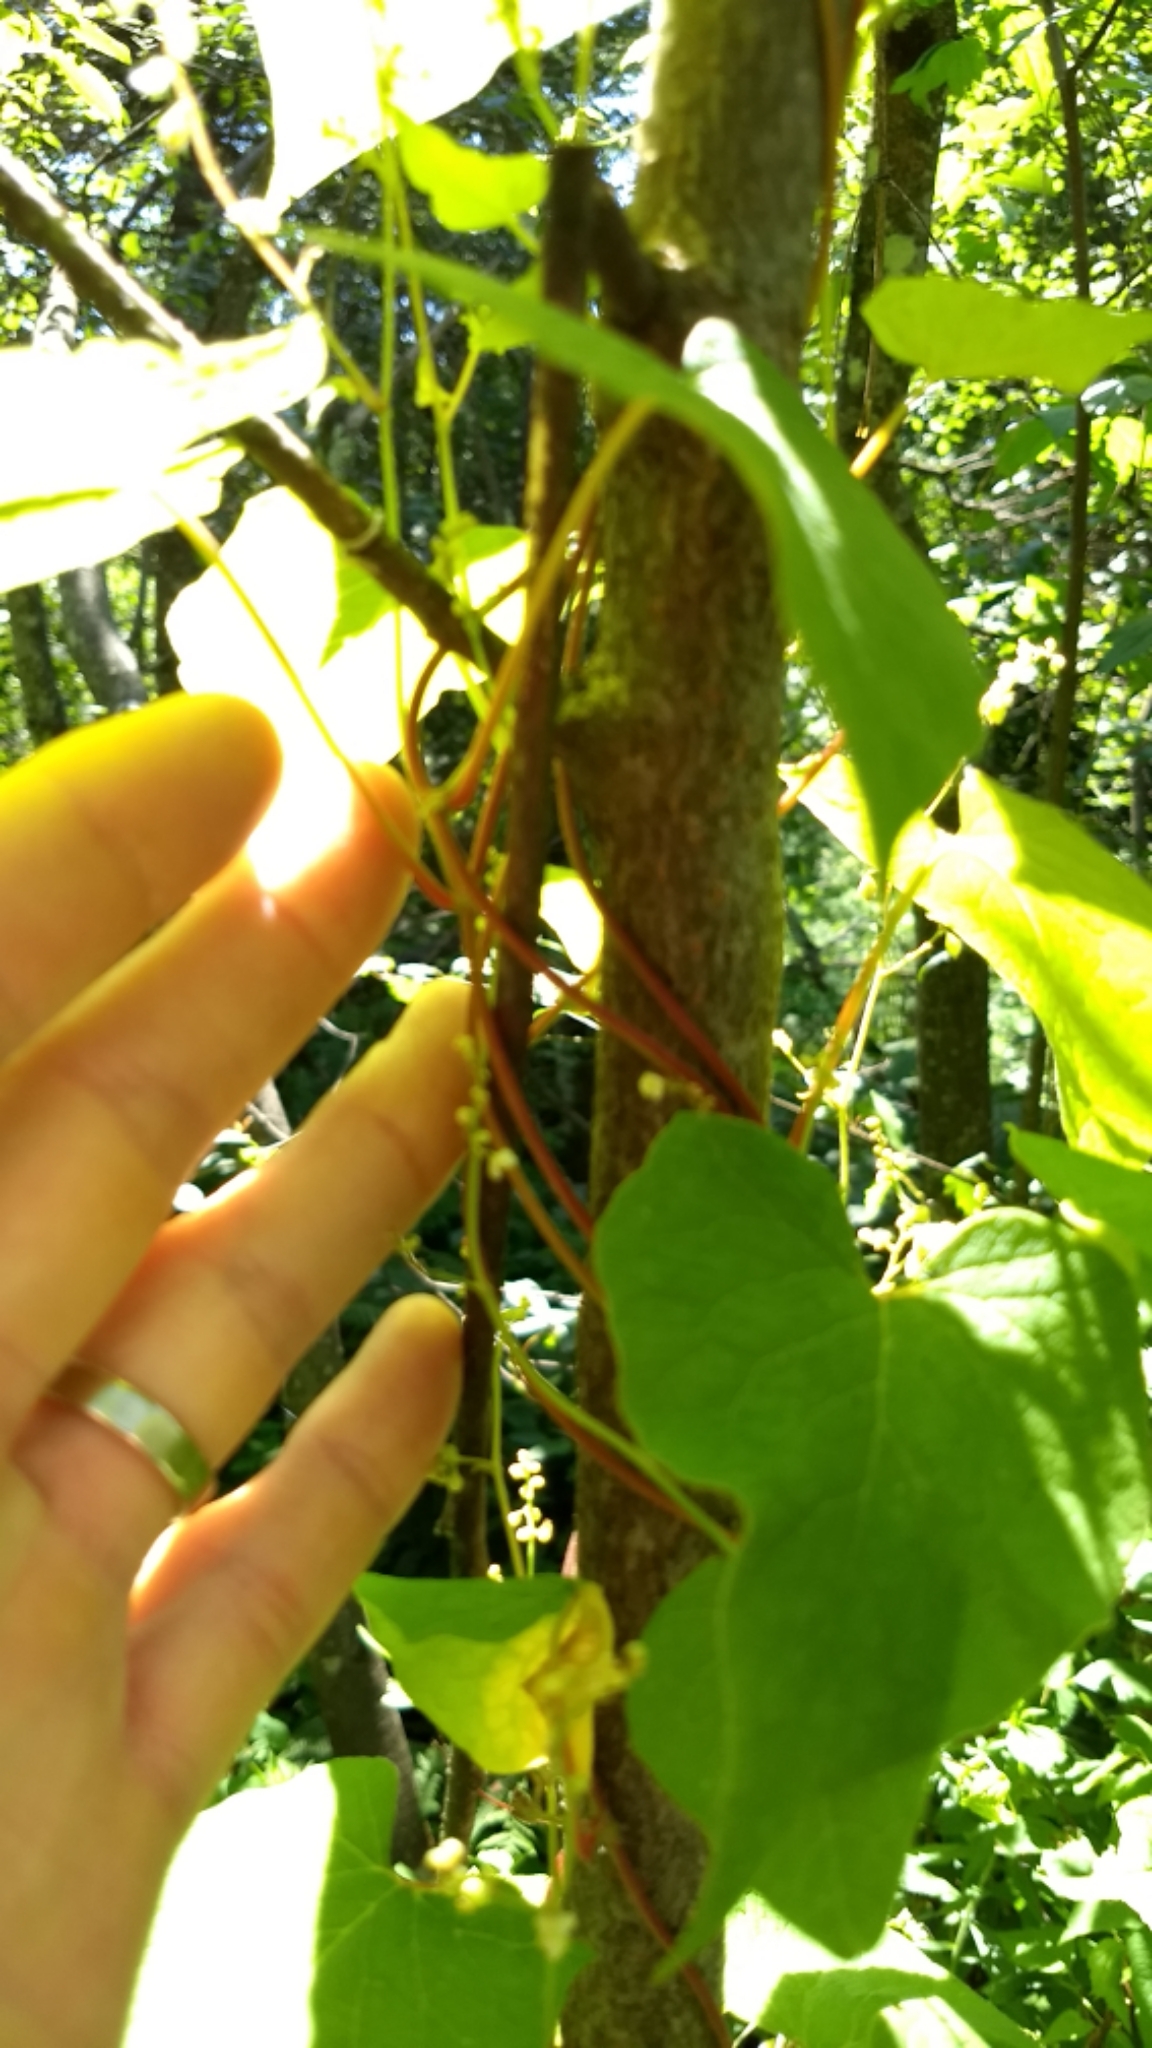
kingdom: Plantae
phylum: Tracheophyta
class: Magnoliopsida
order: Caryophyllales
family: Polygonaceae
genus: Parogonum
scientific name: Parogonum ciliinode
